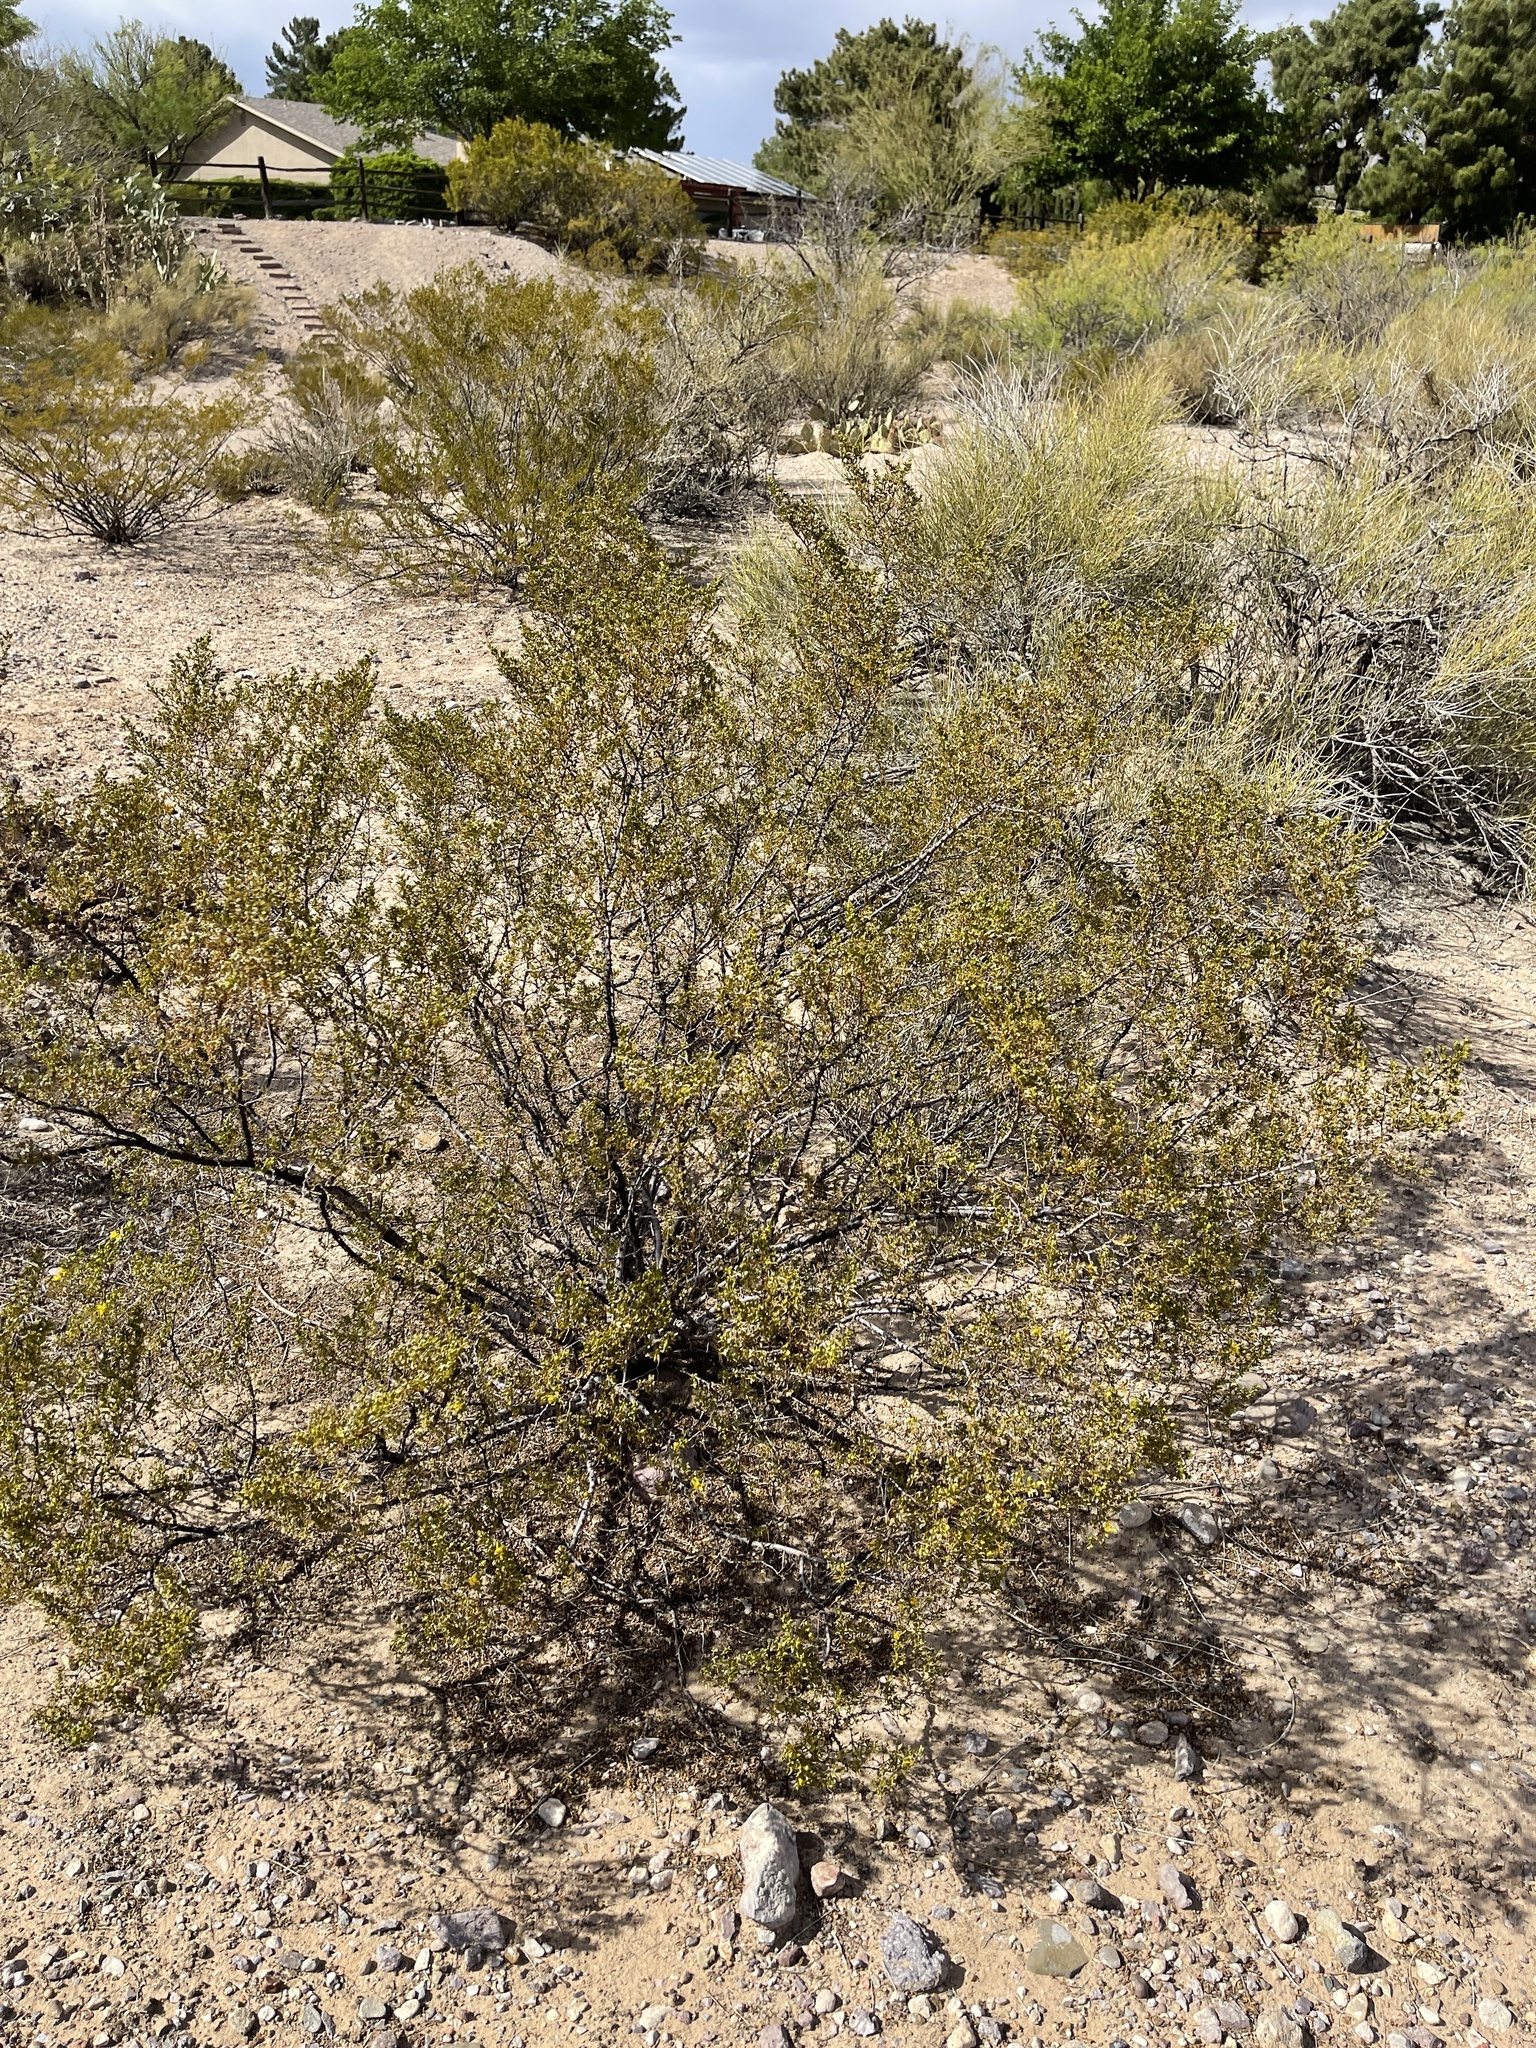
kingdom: Plantae
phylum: Tracheophyta
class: Magnoliopsida
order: Zygophyllales
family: Zygophyllaceae
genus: Larrea
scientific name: Larrea tridentata
